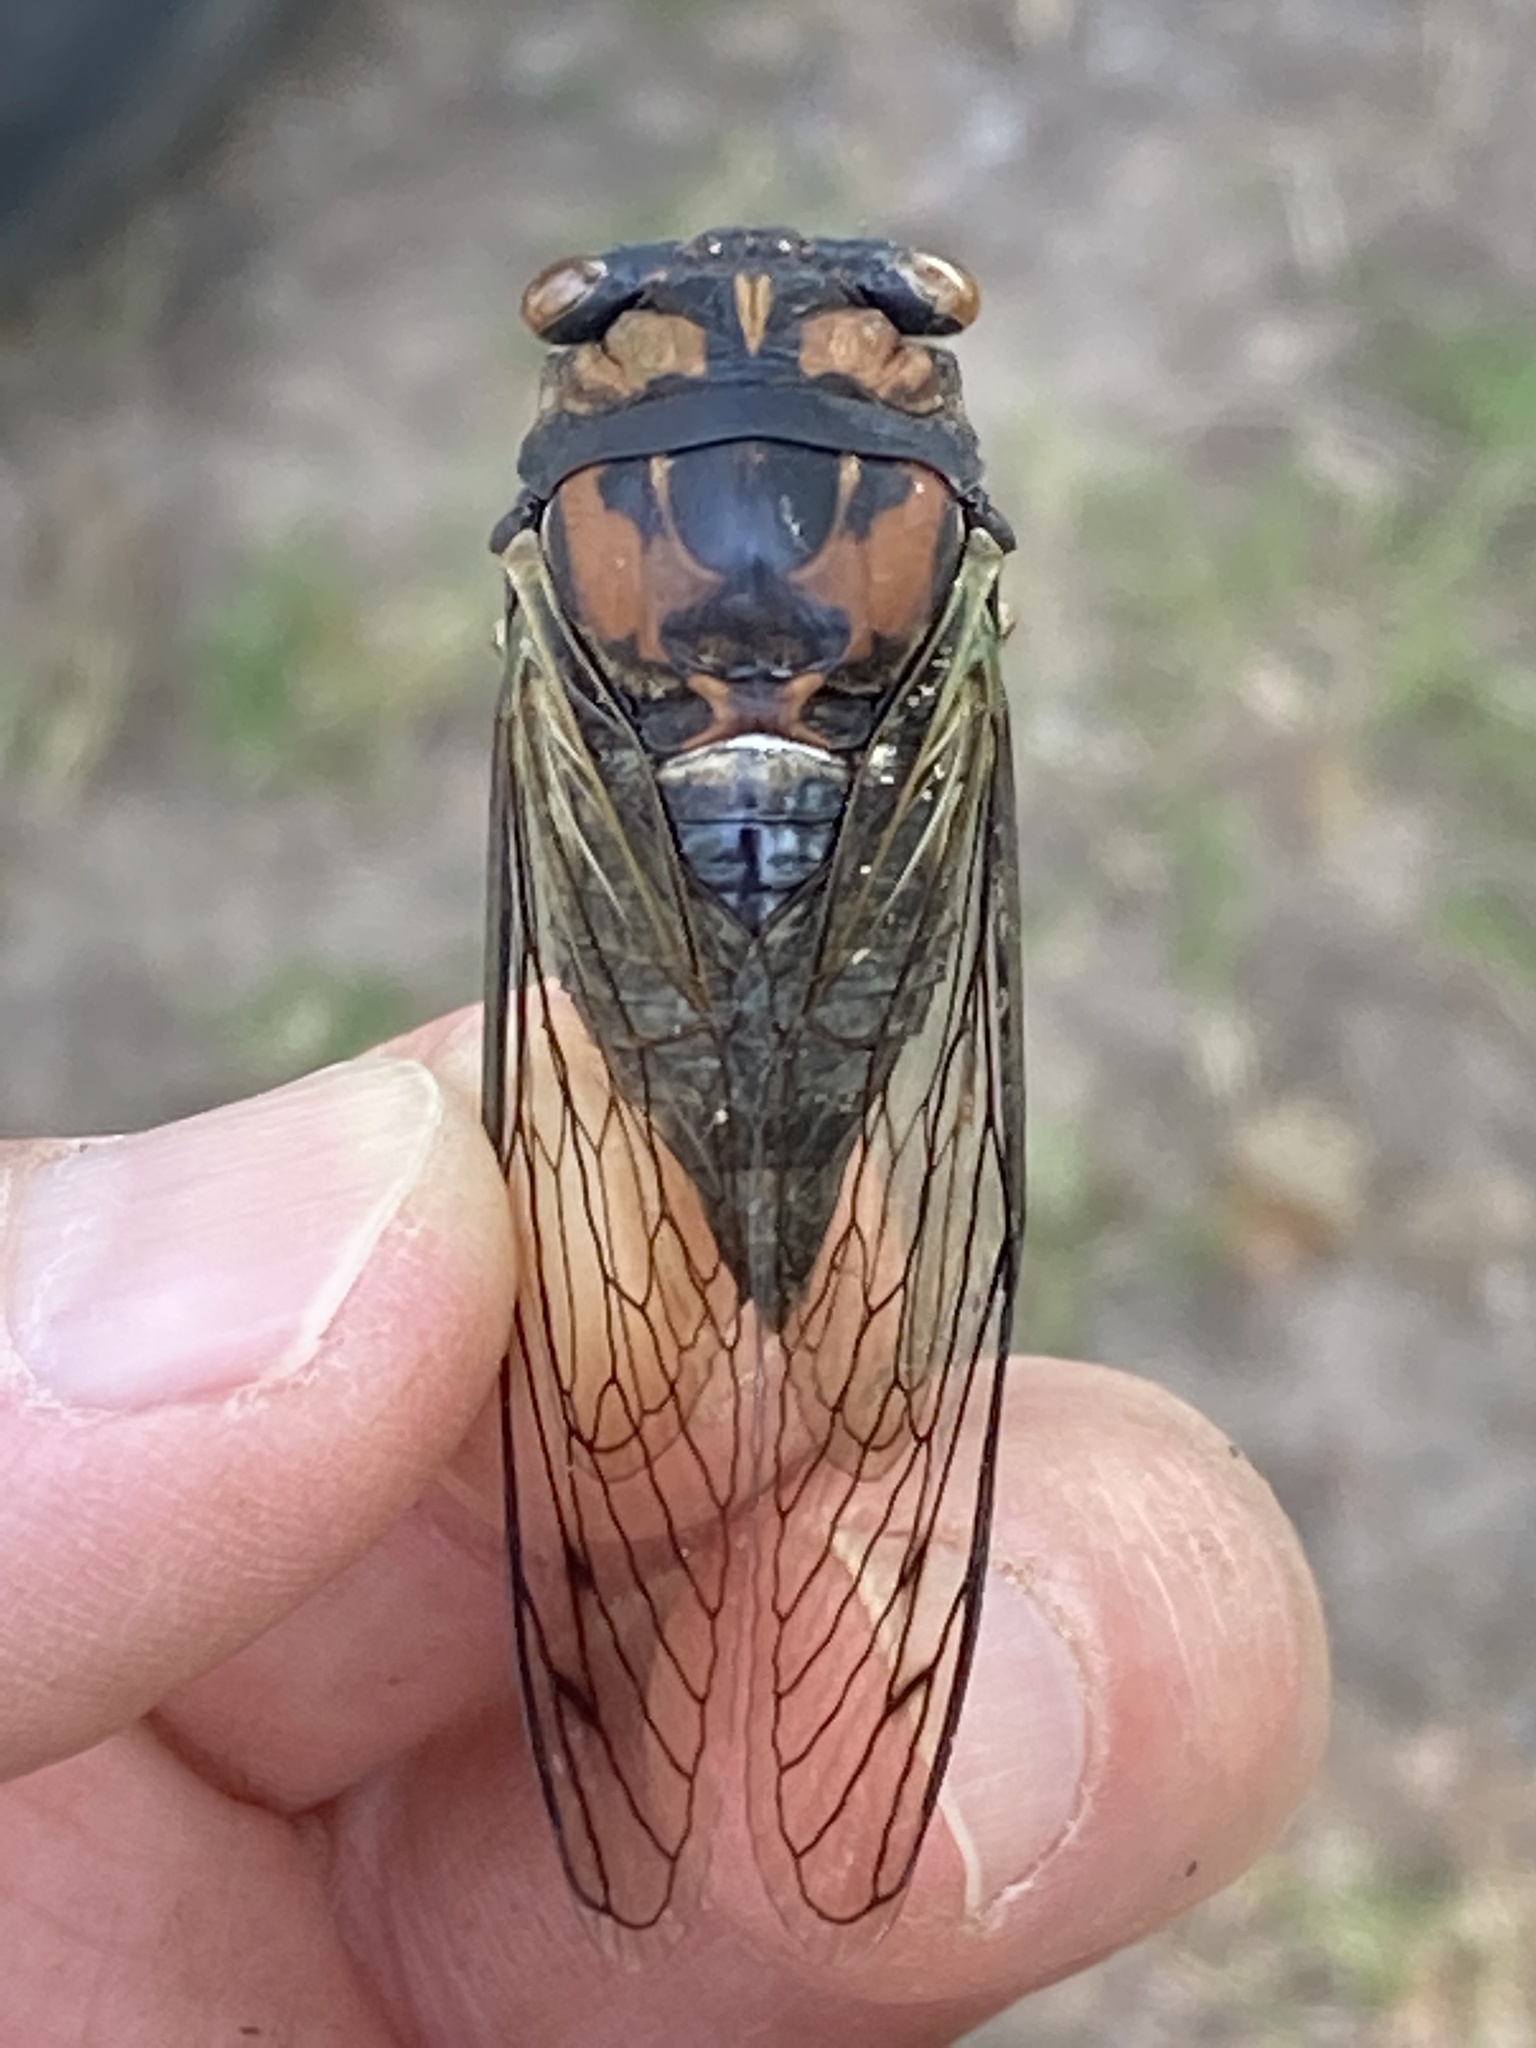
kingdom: Animalia
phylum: Arthropoda
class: Insecta
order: Hemiptera
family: Cicadidae
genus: Neotibicen
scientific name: Neotibicen lyricen
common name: Lyric cicada
